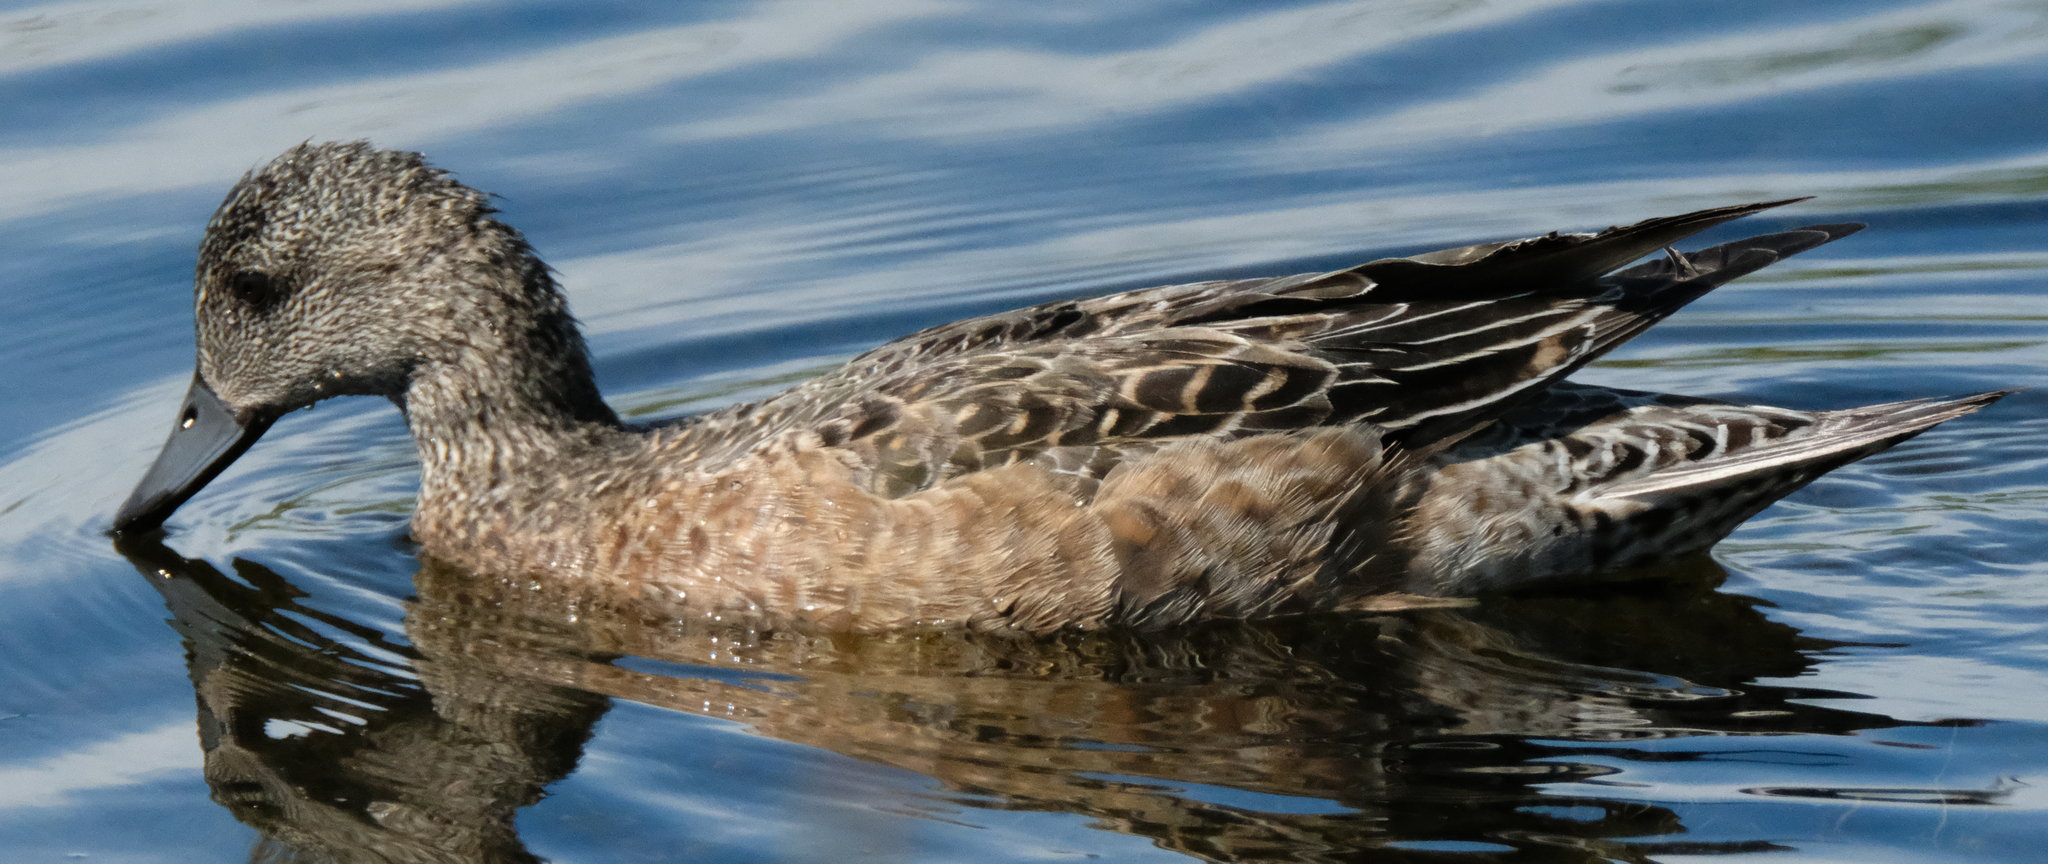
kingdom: Animalia
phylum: Chordata
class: Aves
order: Anseriformes
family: Anatidae
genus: Mareca
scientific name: Mareca americana
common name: American wigeon
